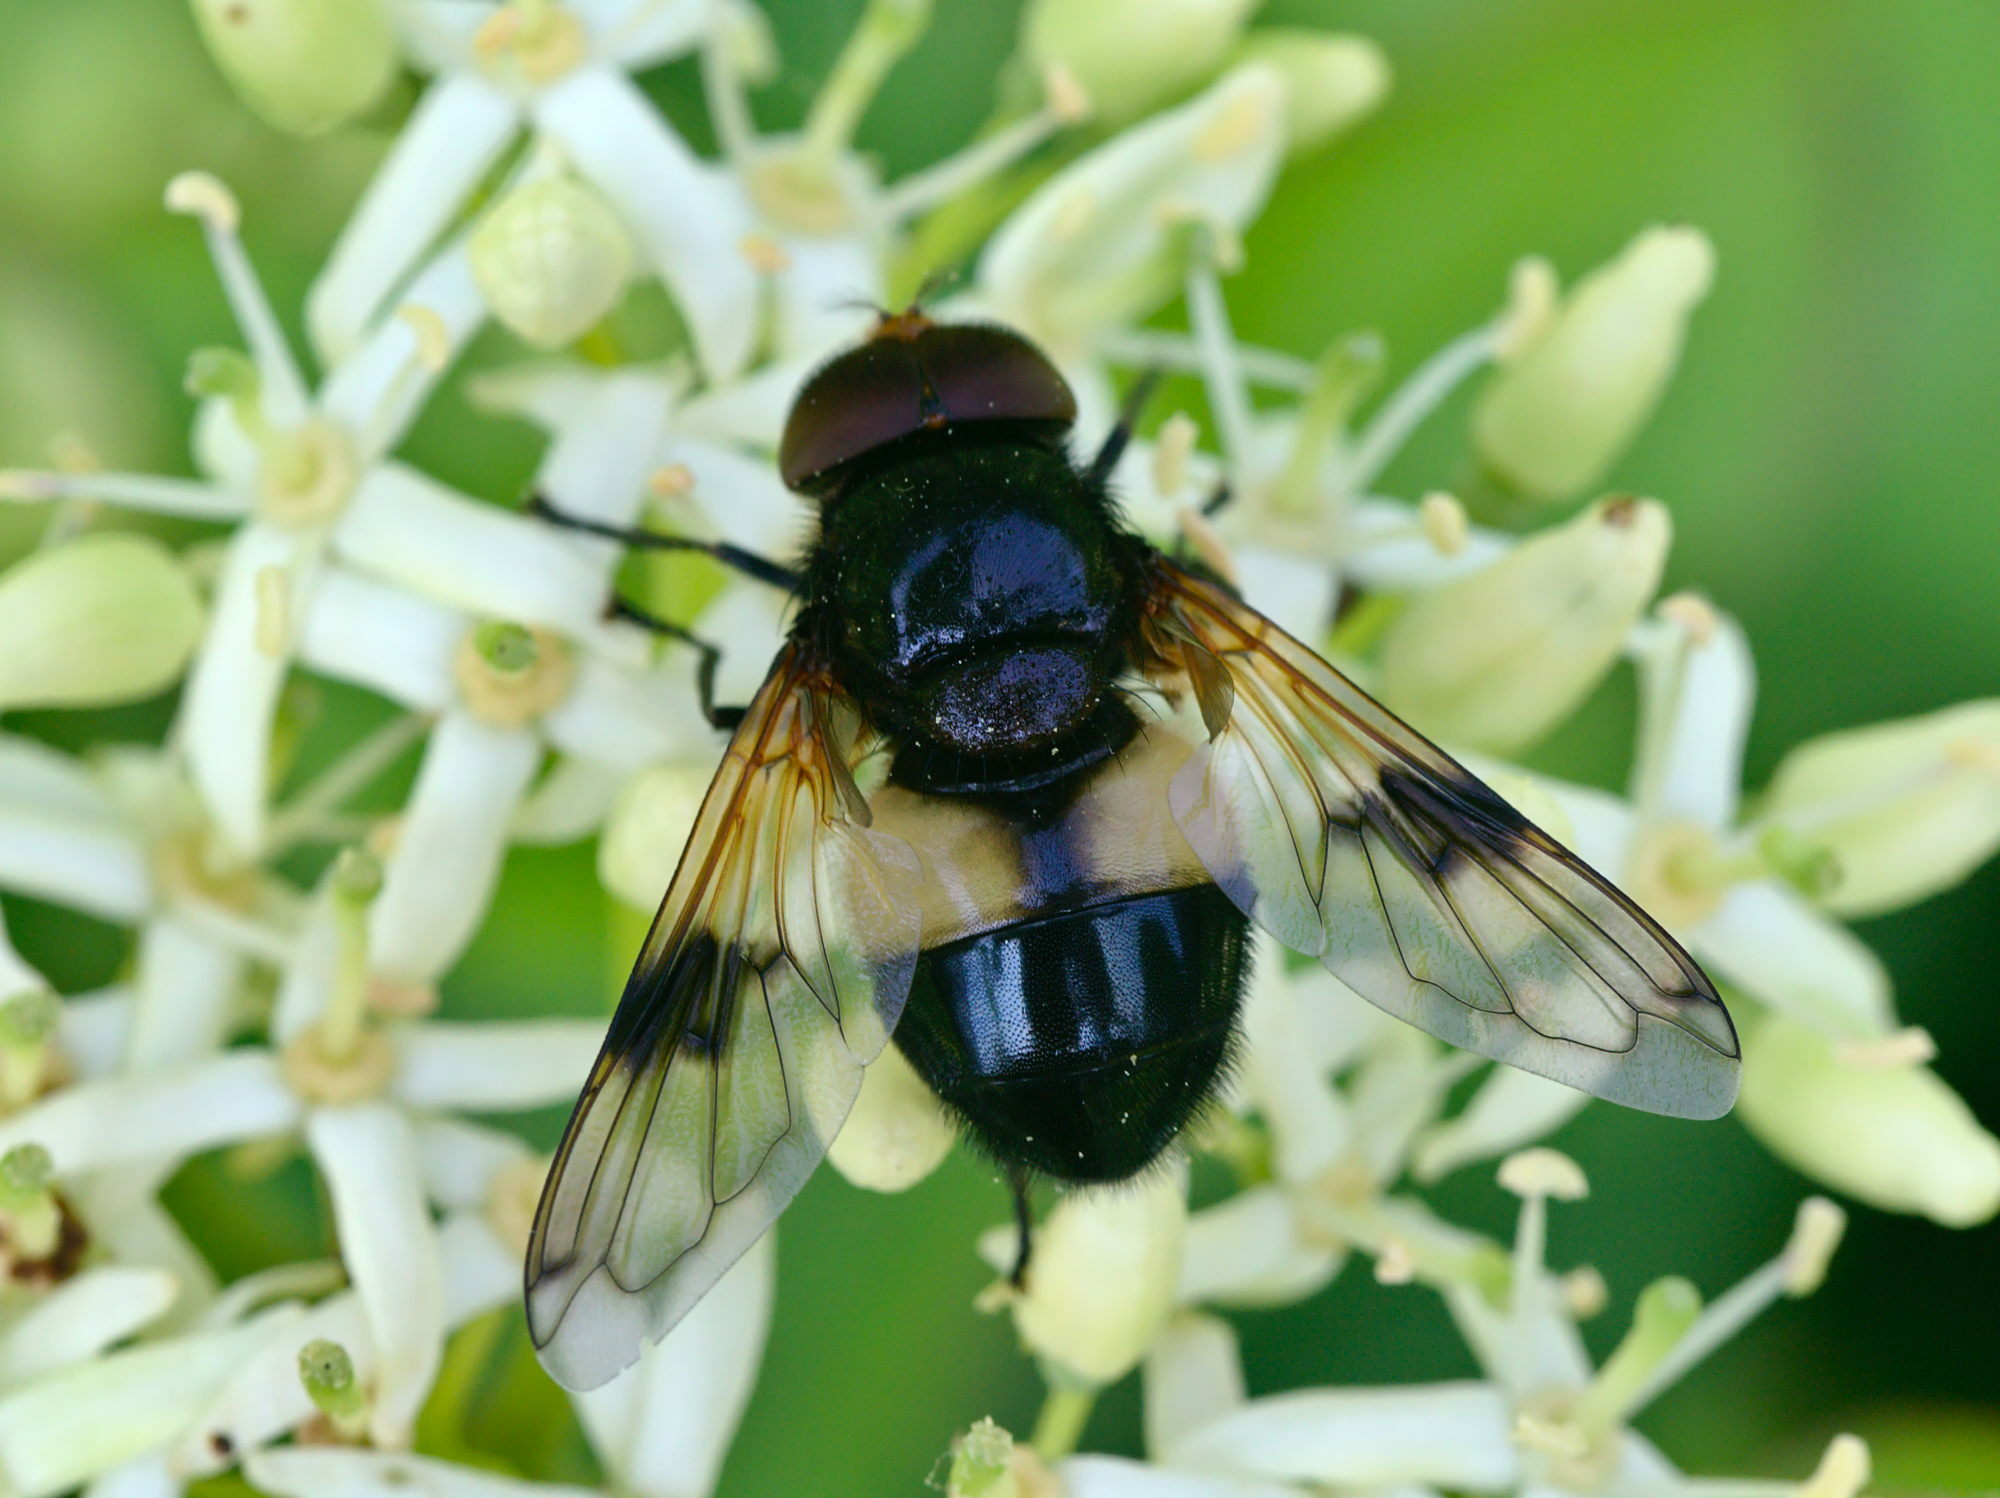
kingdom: Animalia
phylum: Arthropoda
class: Insecta
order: Diptera
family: Syrphidae
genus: Volucella
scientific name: Volucella pellucens
